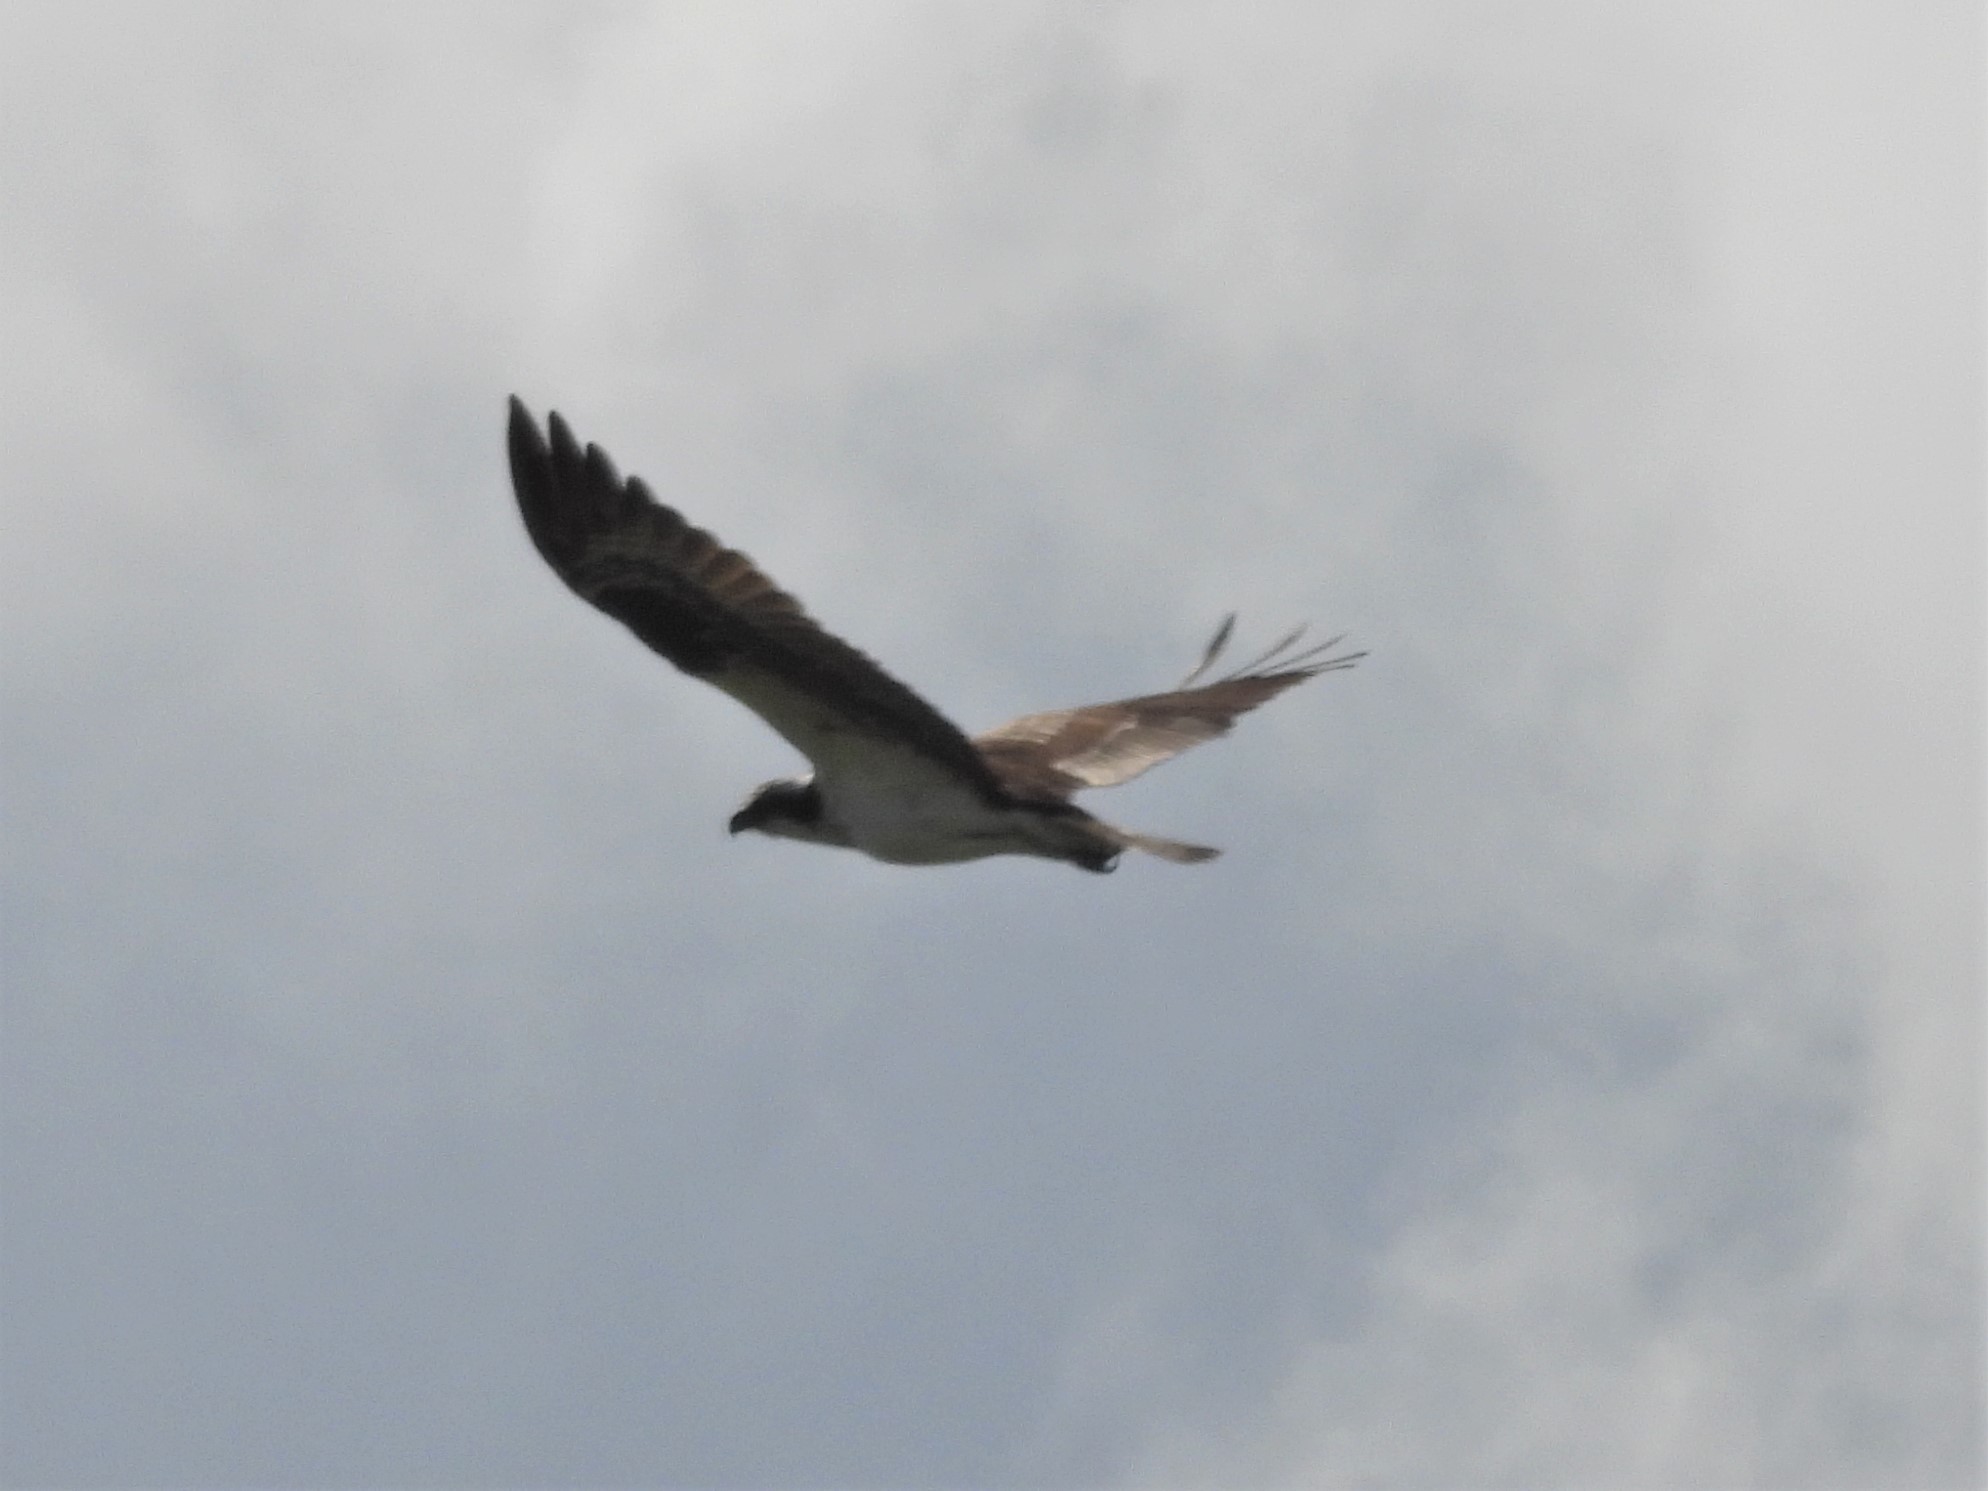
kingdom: Animalia
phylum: Chordata
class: Aves
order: Accipitriformes
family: Pandionidae
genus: Pandion
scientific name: Pandion haliaetus
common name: Osprey
